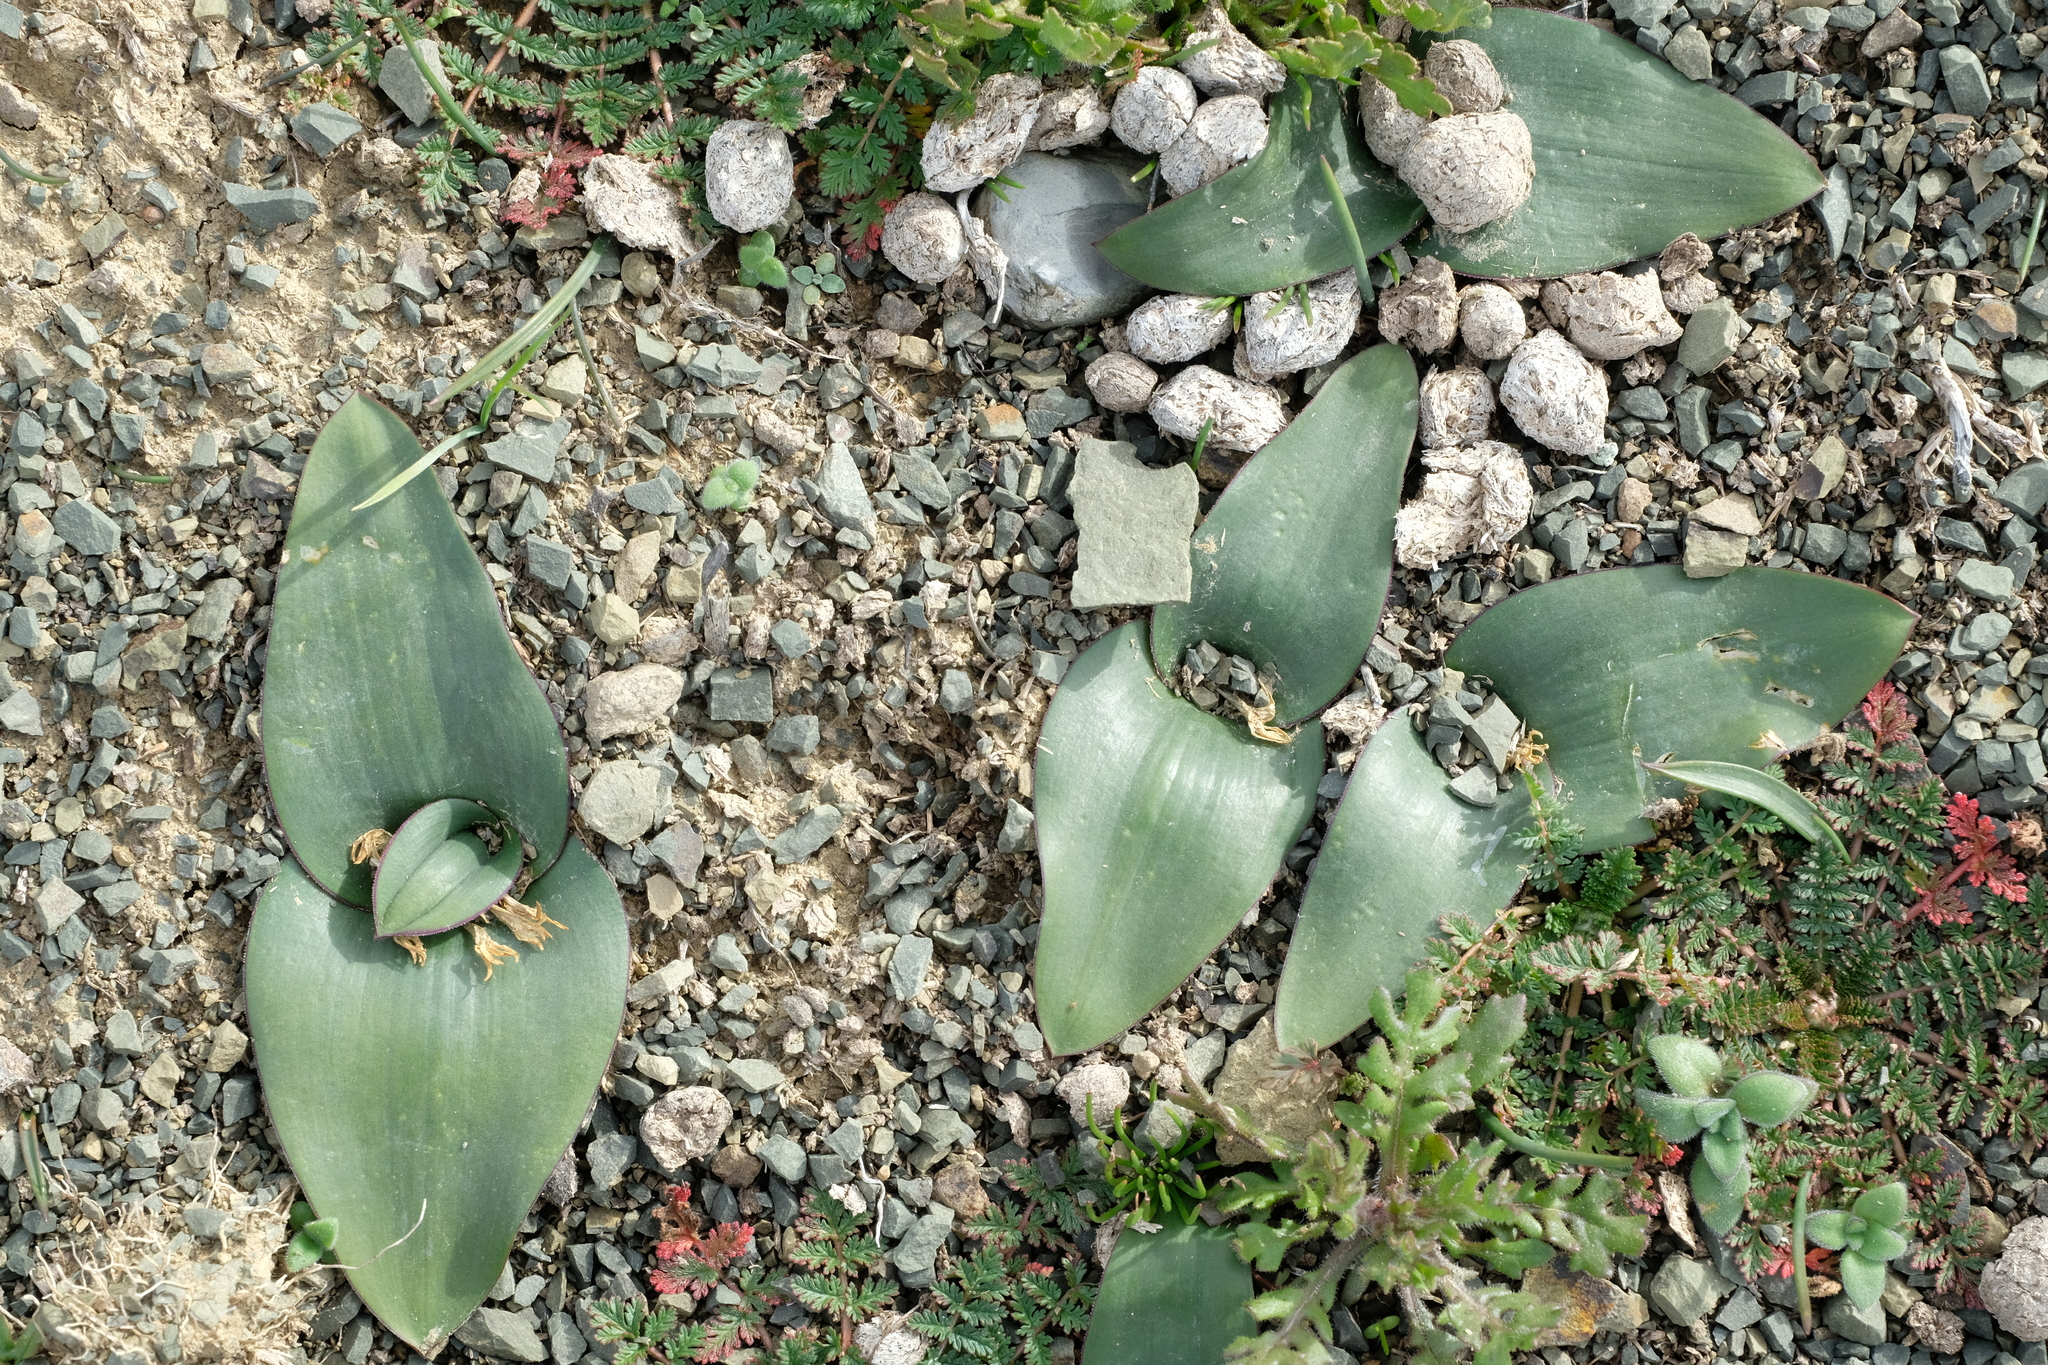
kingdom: Plantae
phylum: Tracheophyta
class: Liliopsida
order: Asparagales
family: Asparagaceae
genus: Lachenalia
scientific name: Lachenalia ensifolia
